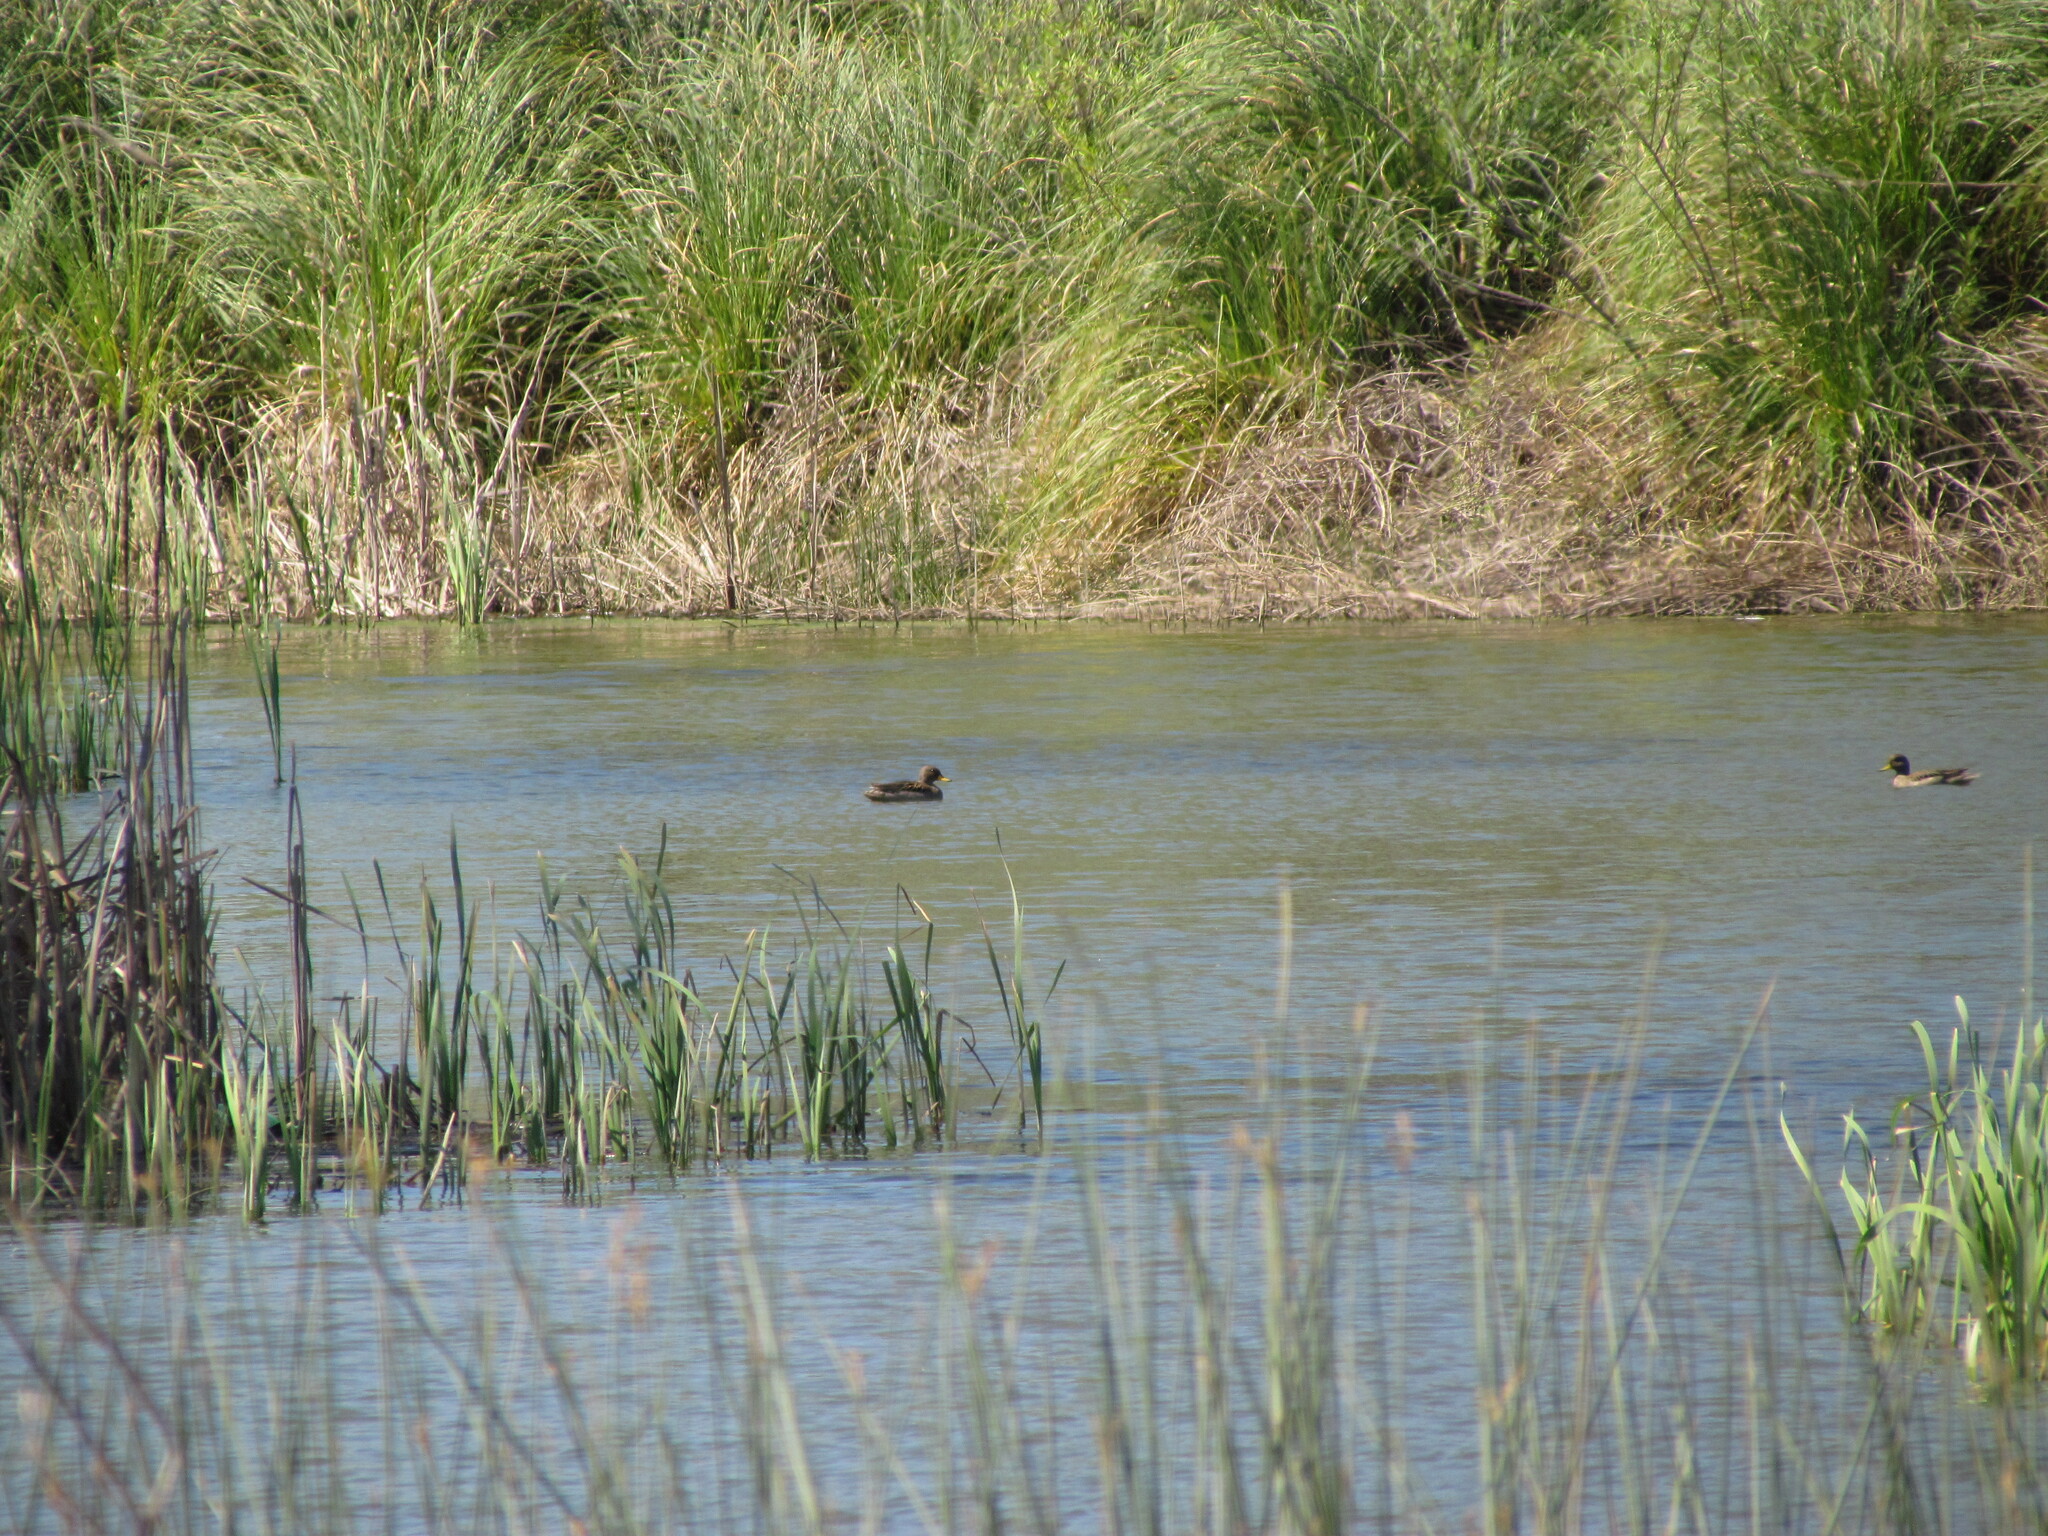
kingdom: Animalia
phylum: Chordata
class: Aves
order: Anseriformes
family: Anatidae
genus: Anas
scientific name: Anas flavirostris
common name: Yellow-billed teal
